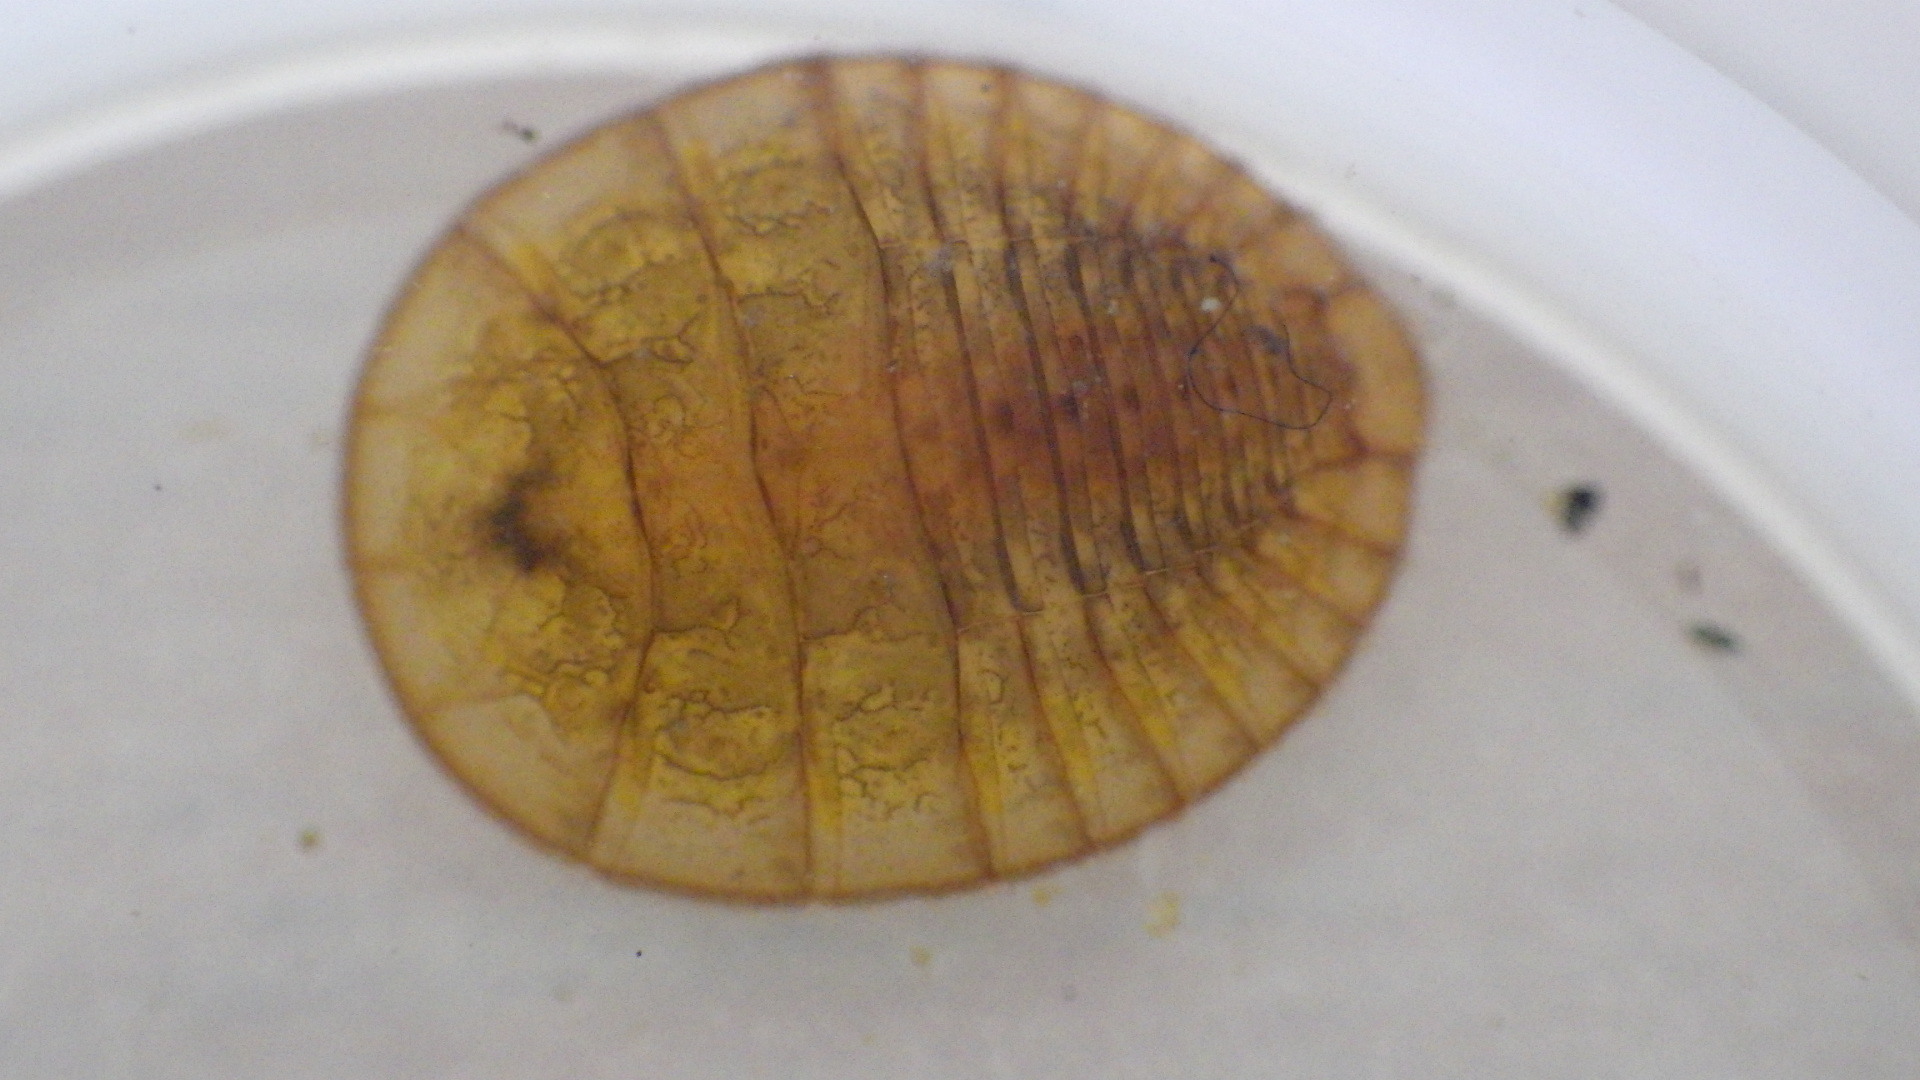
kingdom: Animalia
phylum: Arthropoda
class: Insecta
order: Coleoptera
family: Psephenidae
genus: Psephenus
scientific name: Psephenus herricki
